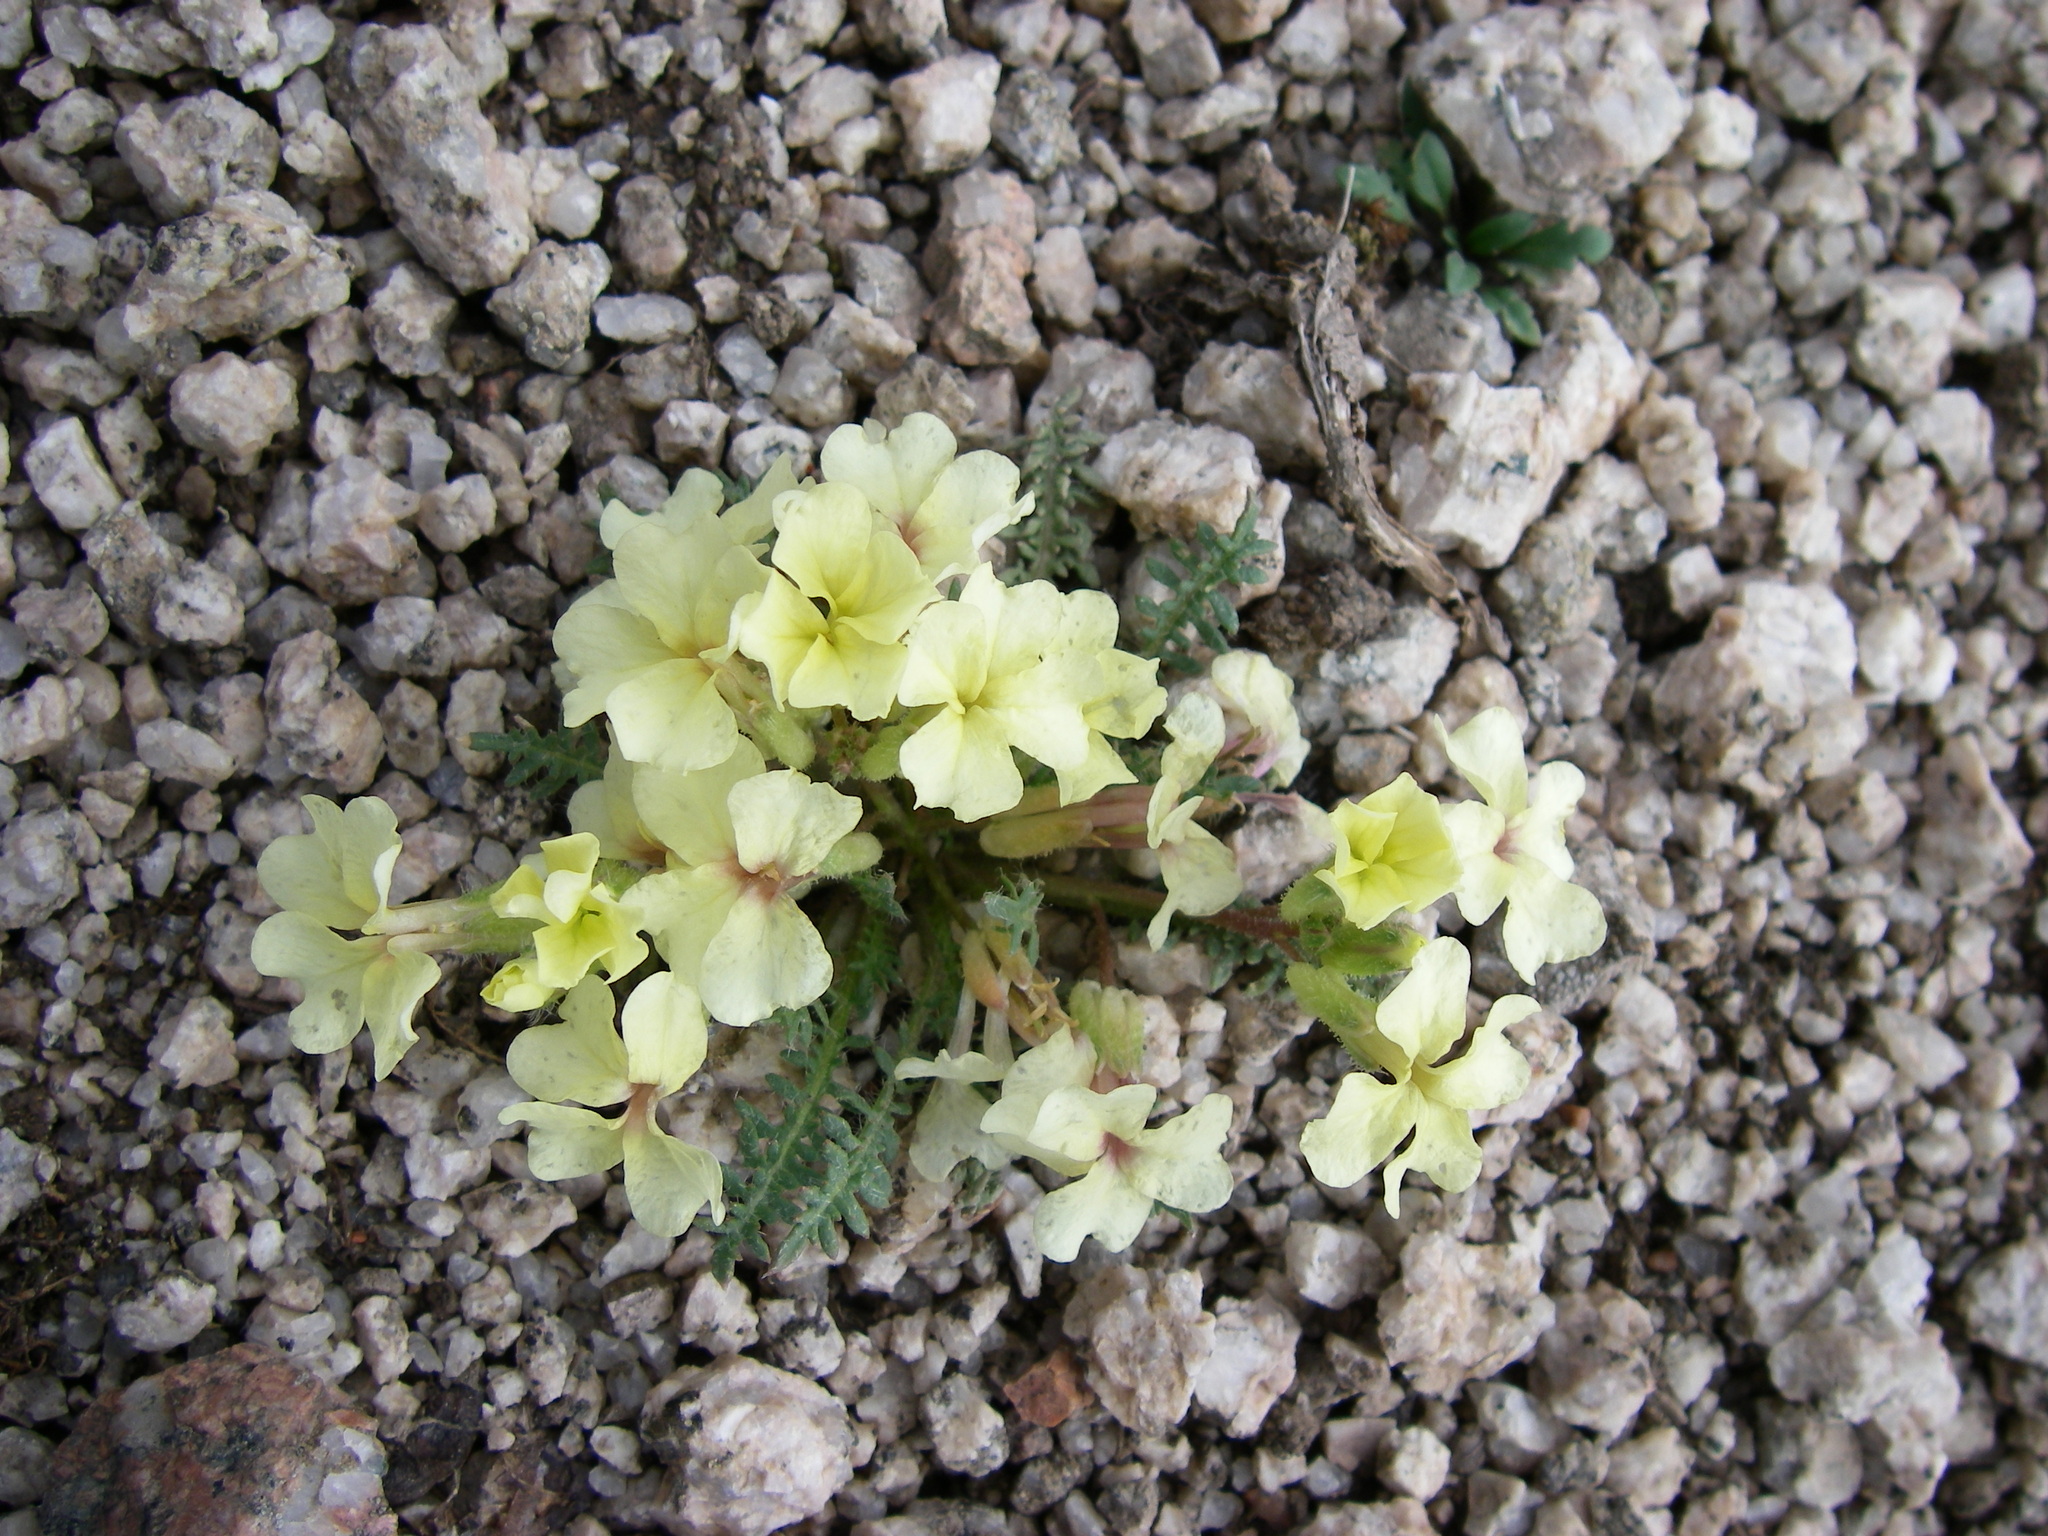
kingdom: Plantae
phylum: Tracheophyta
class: Magnoliopsida
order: Brassicales
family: Brassicaceae
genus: Chorispora
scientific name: Chorispora macropoda
